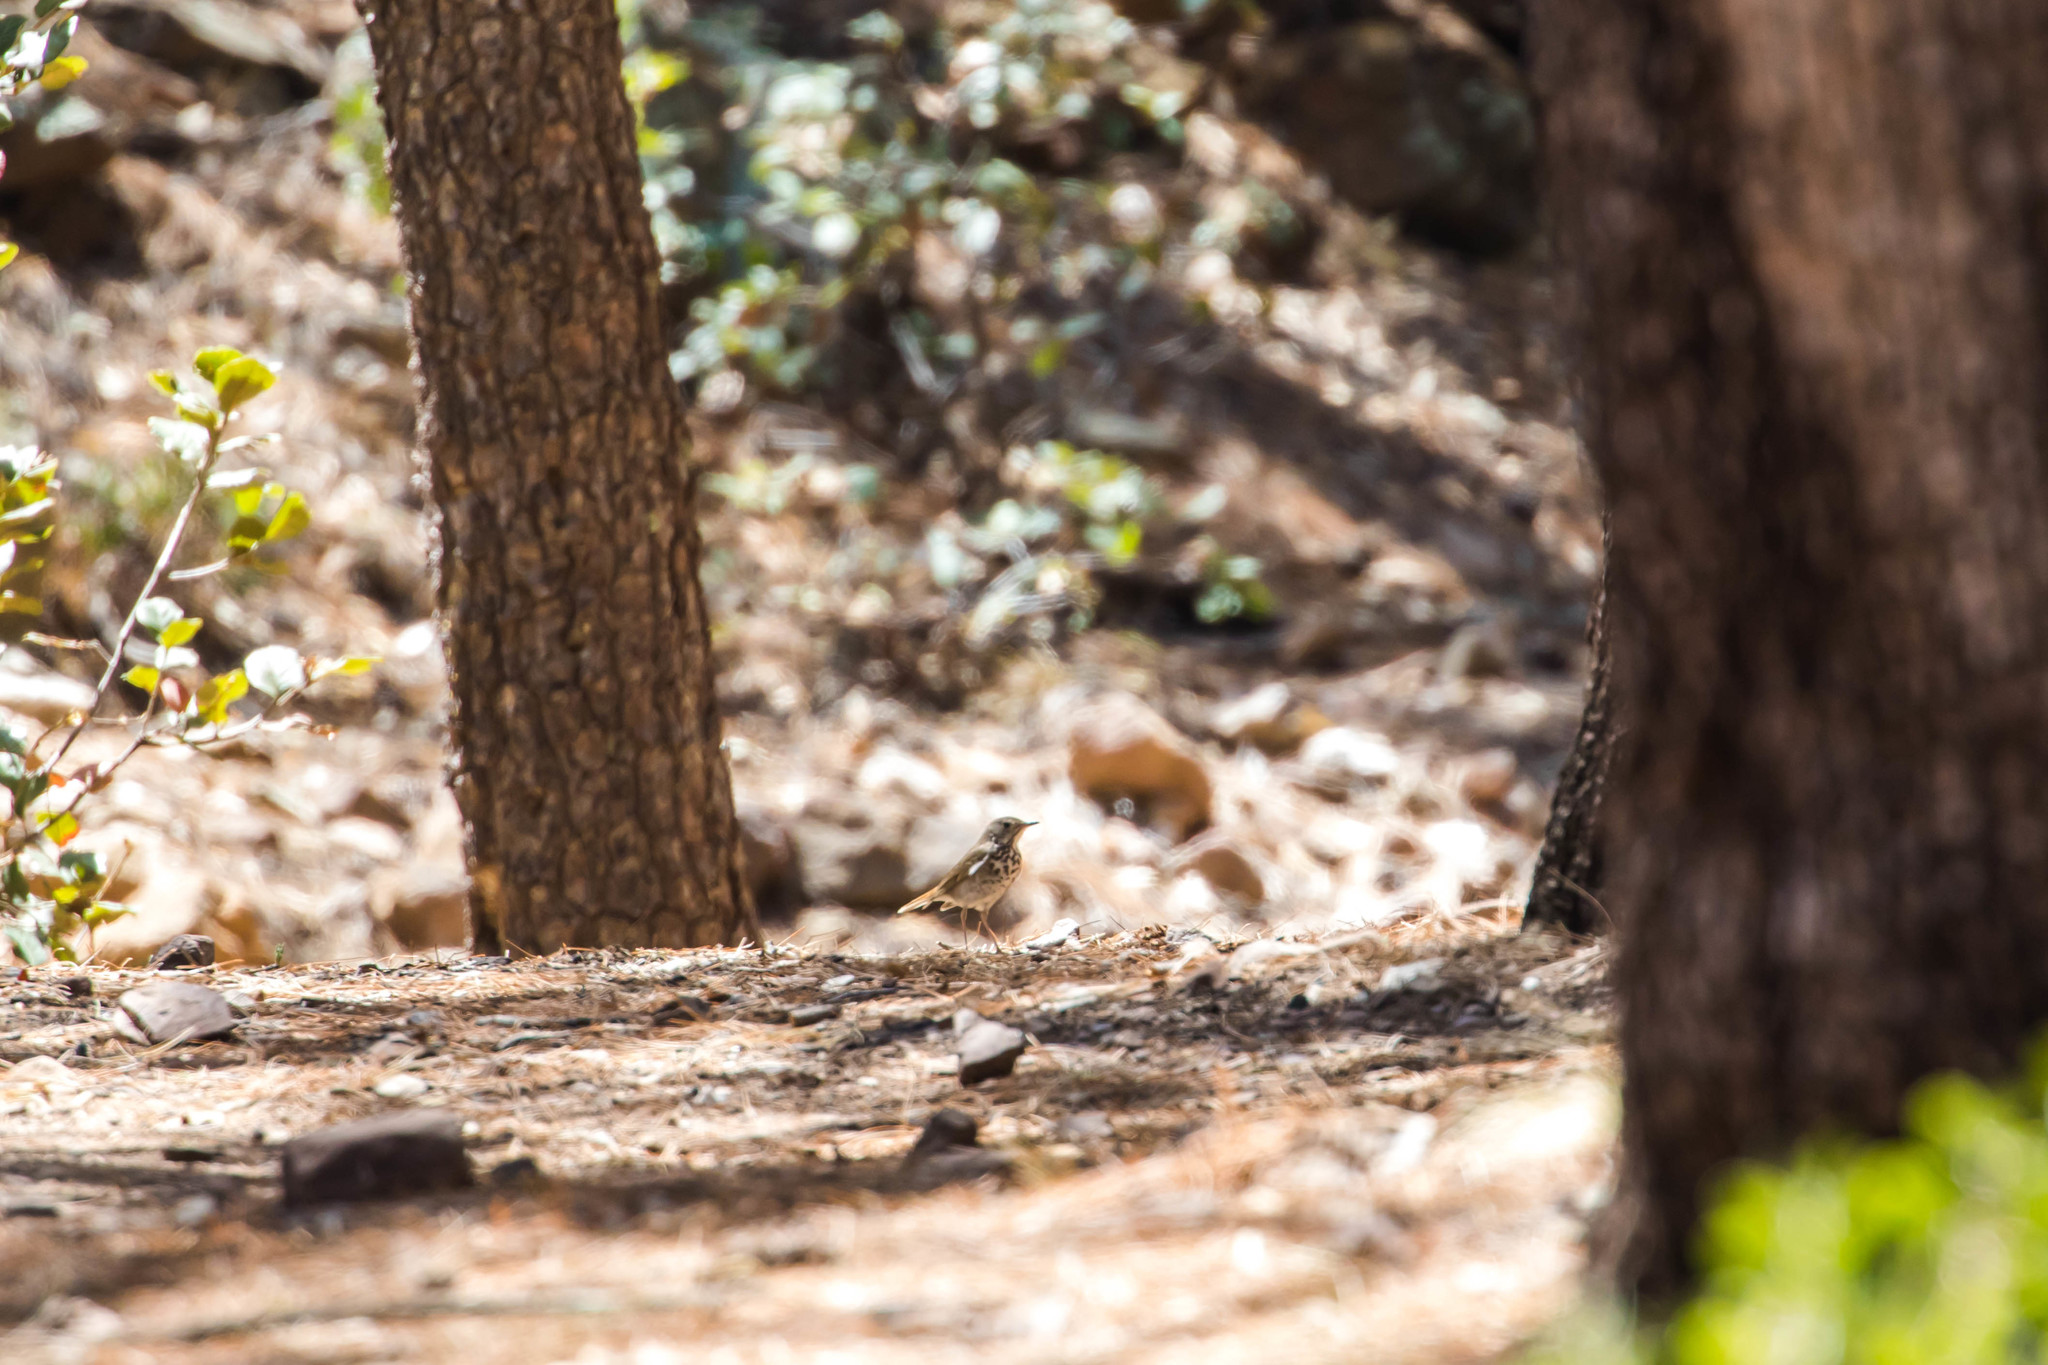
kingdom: Animalia
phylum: Chordata
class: Aves
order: Passeriformes
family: Turdidae
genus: Catharus
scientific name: Catharus guttatus
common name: Hermit thrush
